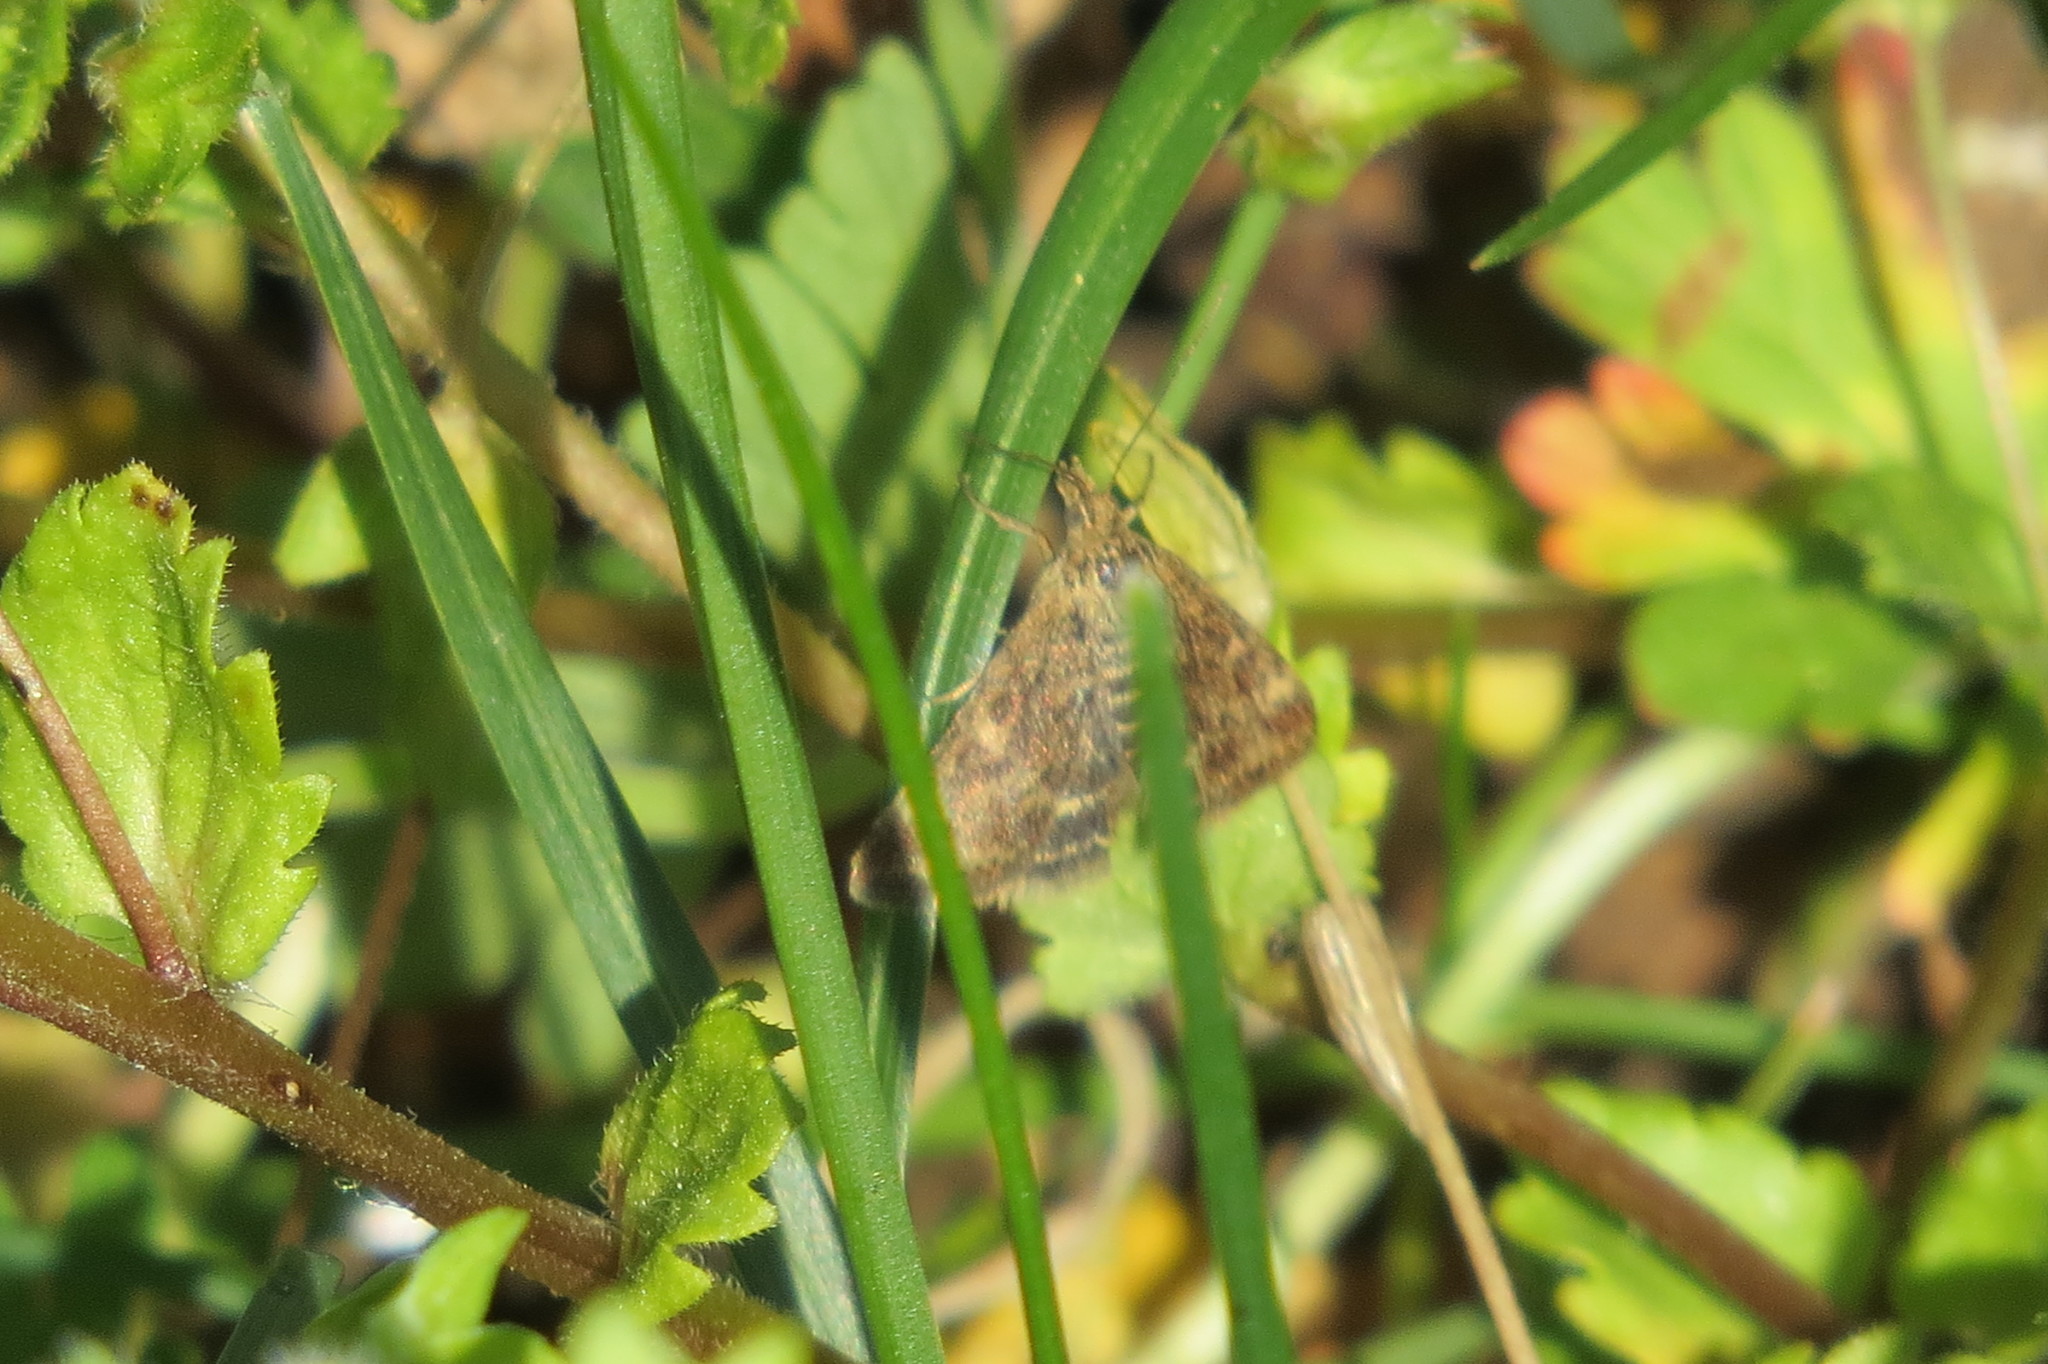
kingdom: Animalia
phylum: Arthropoda
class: Insecta
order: Lepidoptera
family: Crambidae
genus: Pyrausta
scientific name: Pyrausta despicata
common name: Straw-barred pearl
